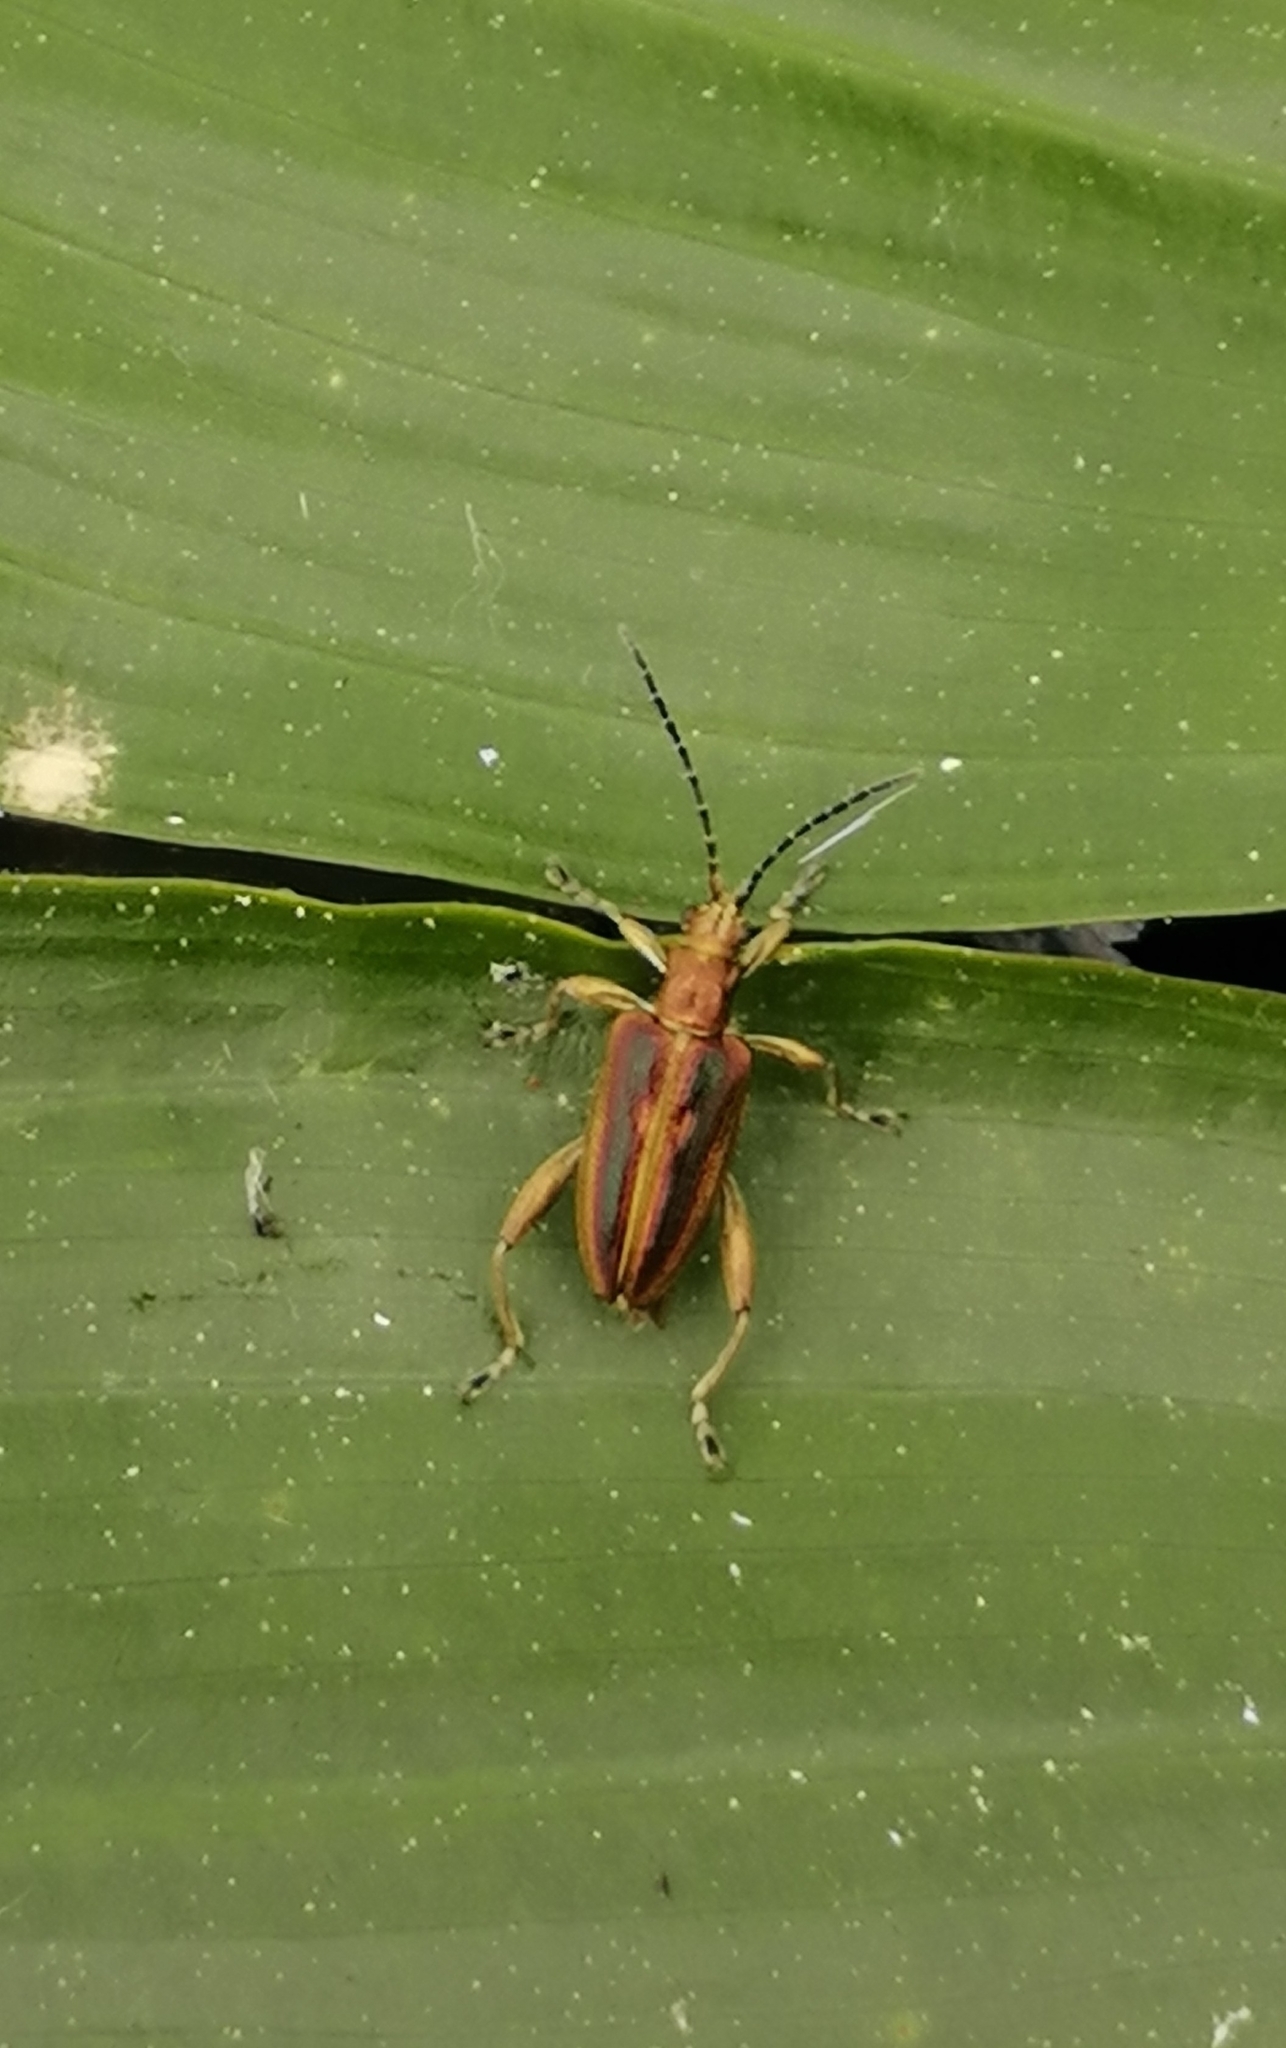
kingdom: Animalia
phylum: Arthropoda
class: Insecta
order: Coleoptera
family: Chrysomelidae
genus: Donacia
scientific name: Donacia aquatica
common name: Zircon reed beetle
